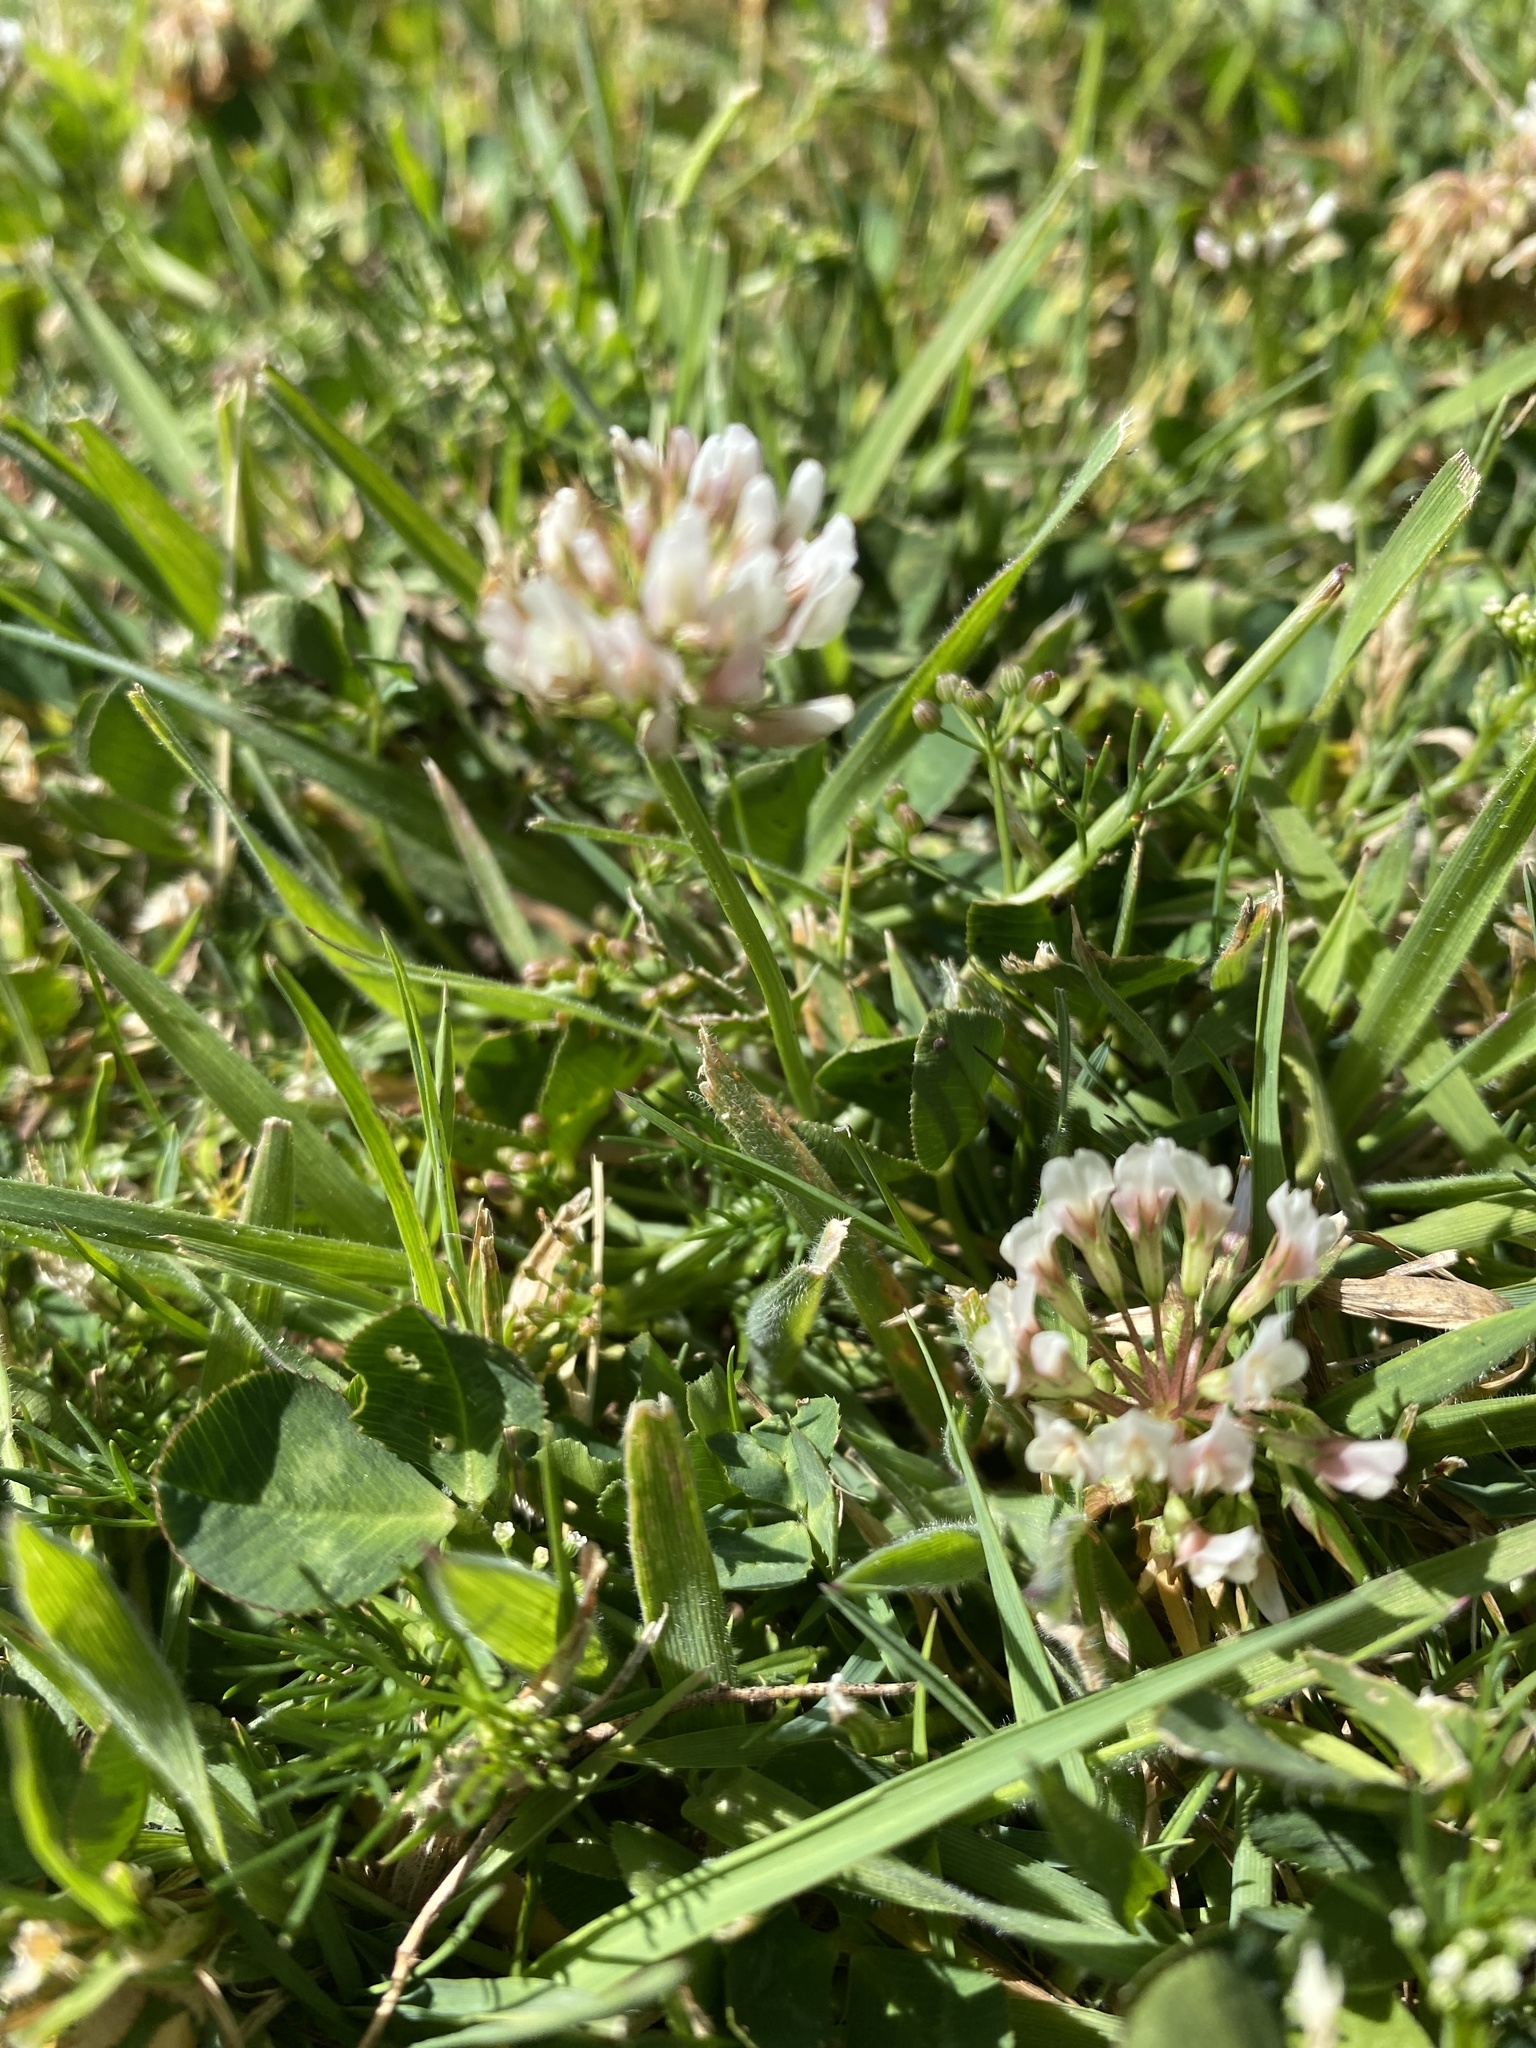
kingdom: Plantae
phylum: Tracheophyta
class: Magnoliopsida
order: Fabales
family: Fabaceae
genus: Trifolium
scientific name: Trifolium repens
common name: White clover
